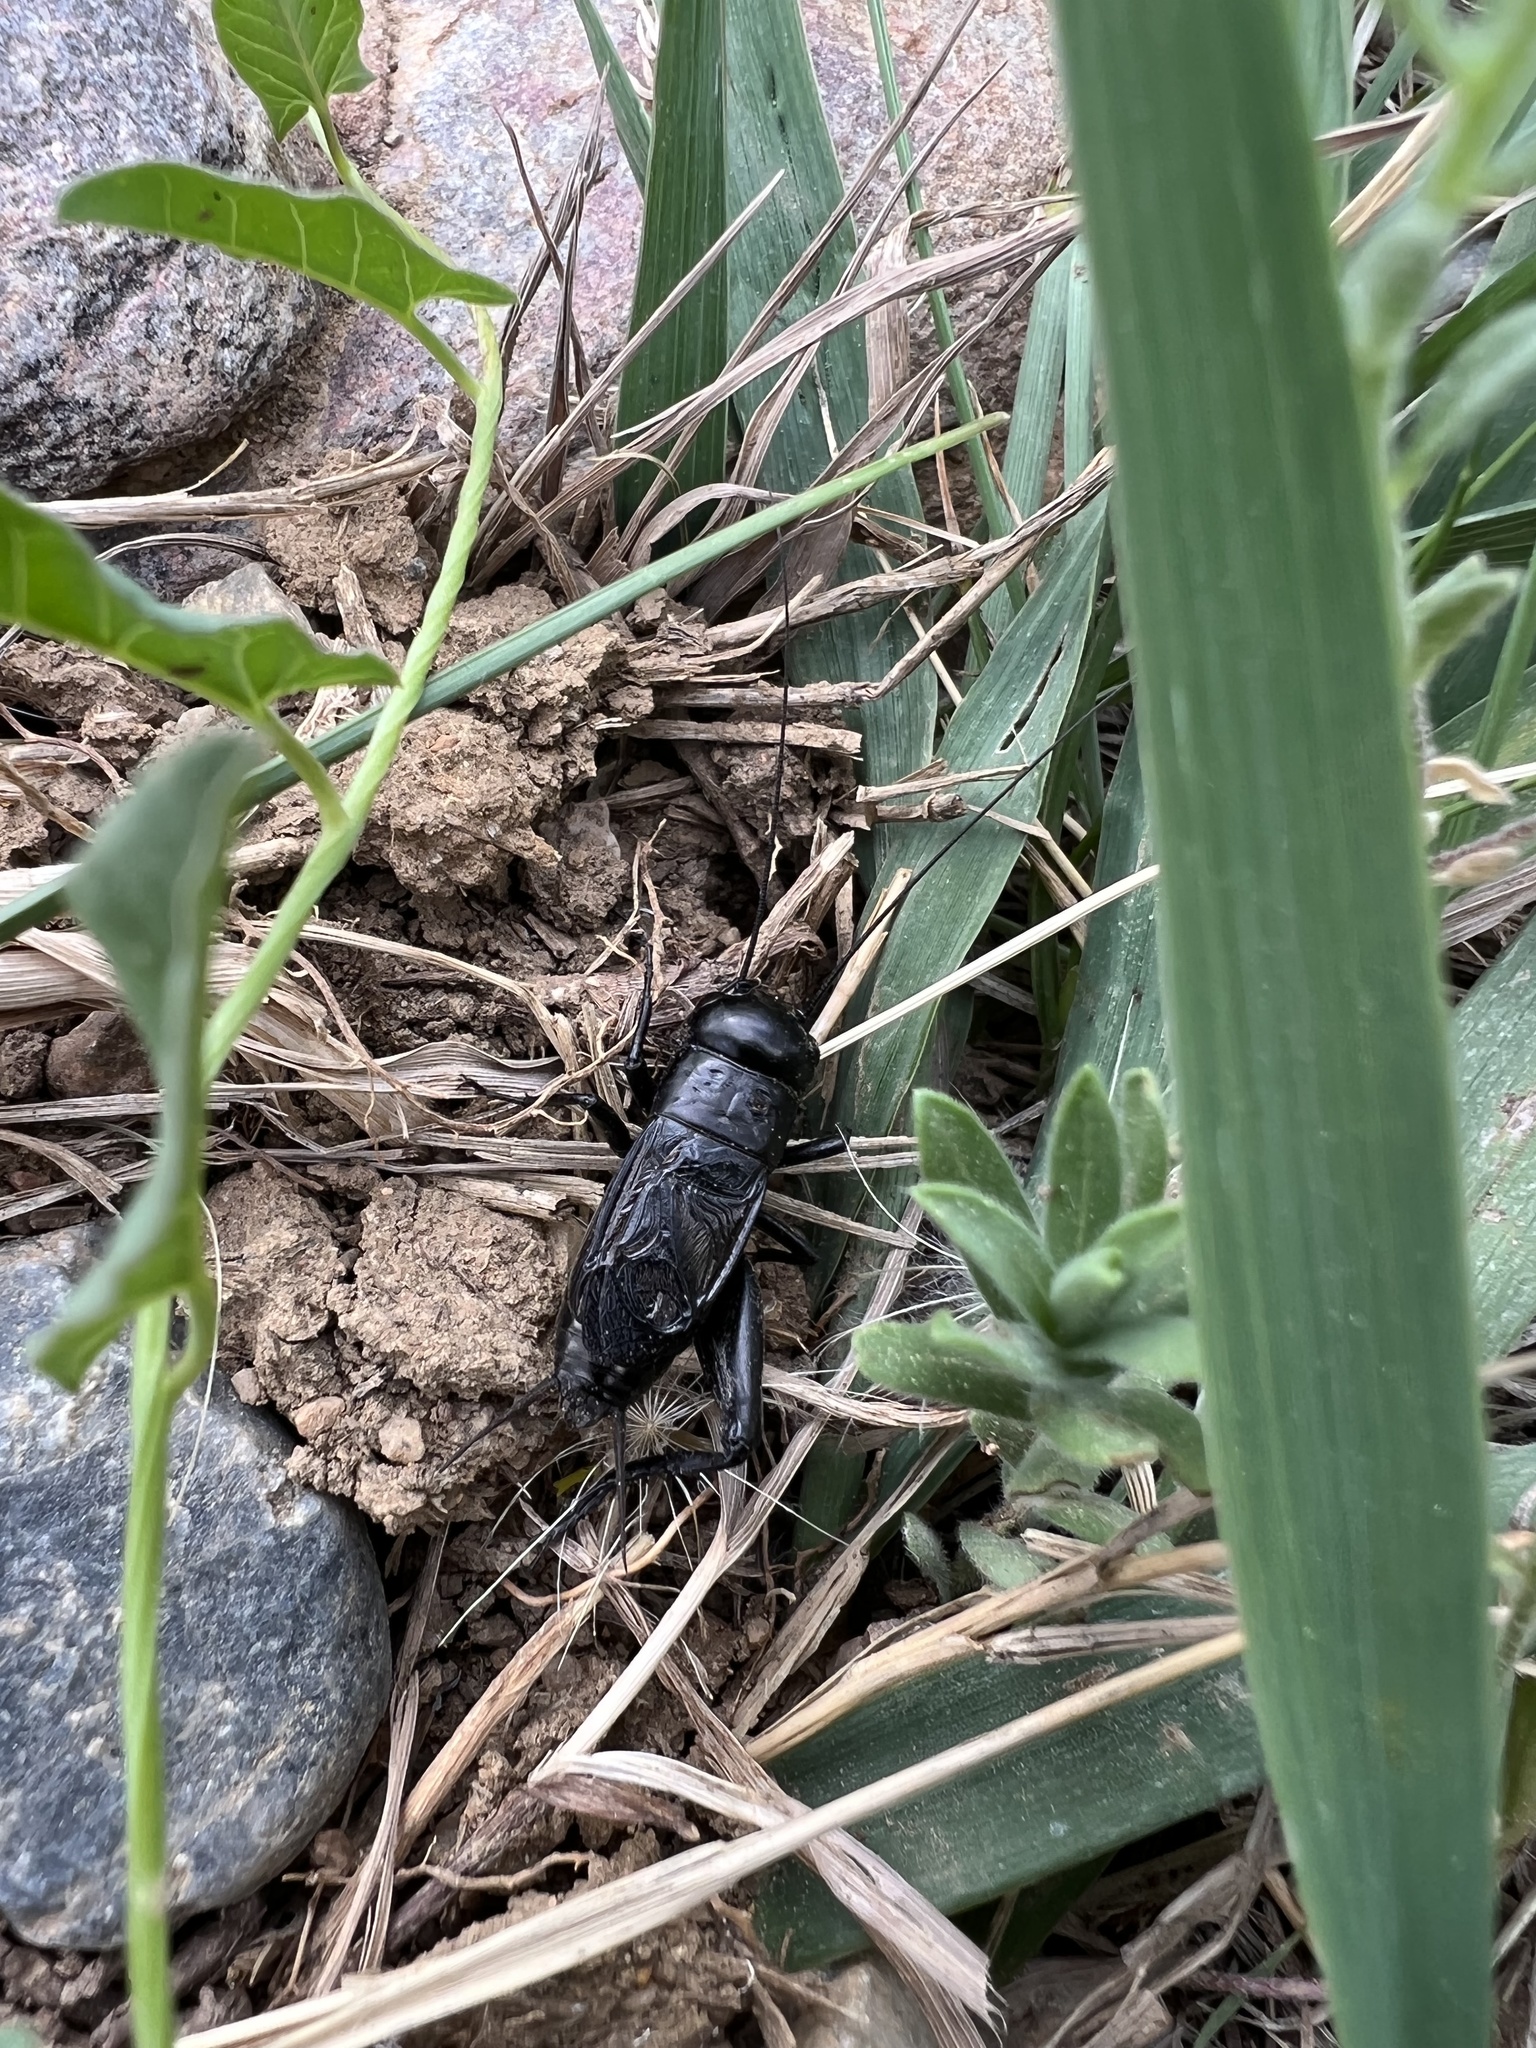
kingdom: Animalia
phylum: Arthropoda
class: Insecta
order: Orthoptera
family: Gryllidae
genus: Gryllus
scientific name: Gryllus veletis
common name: Spring field cricket
